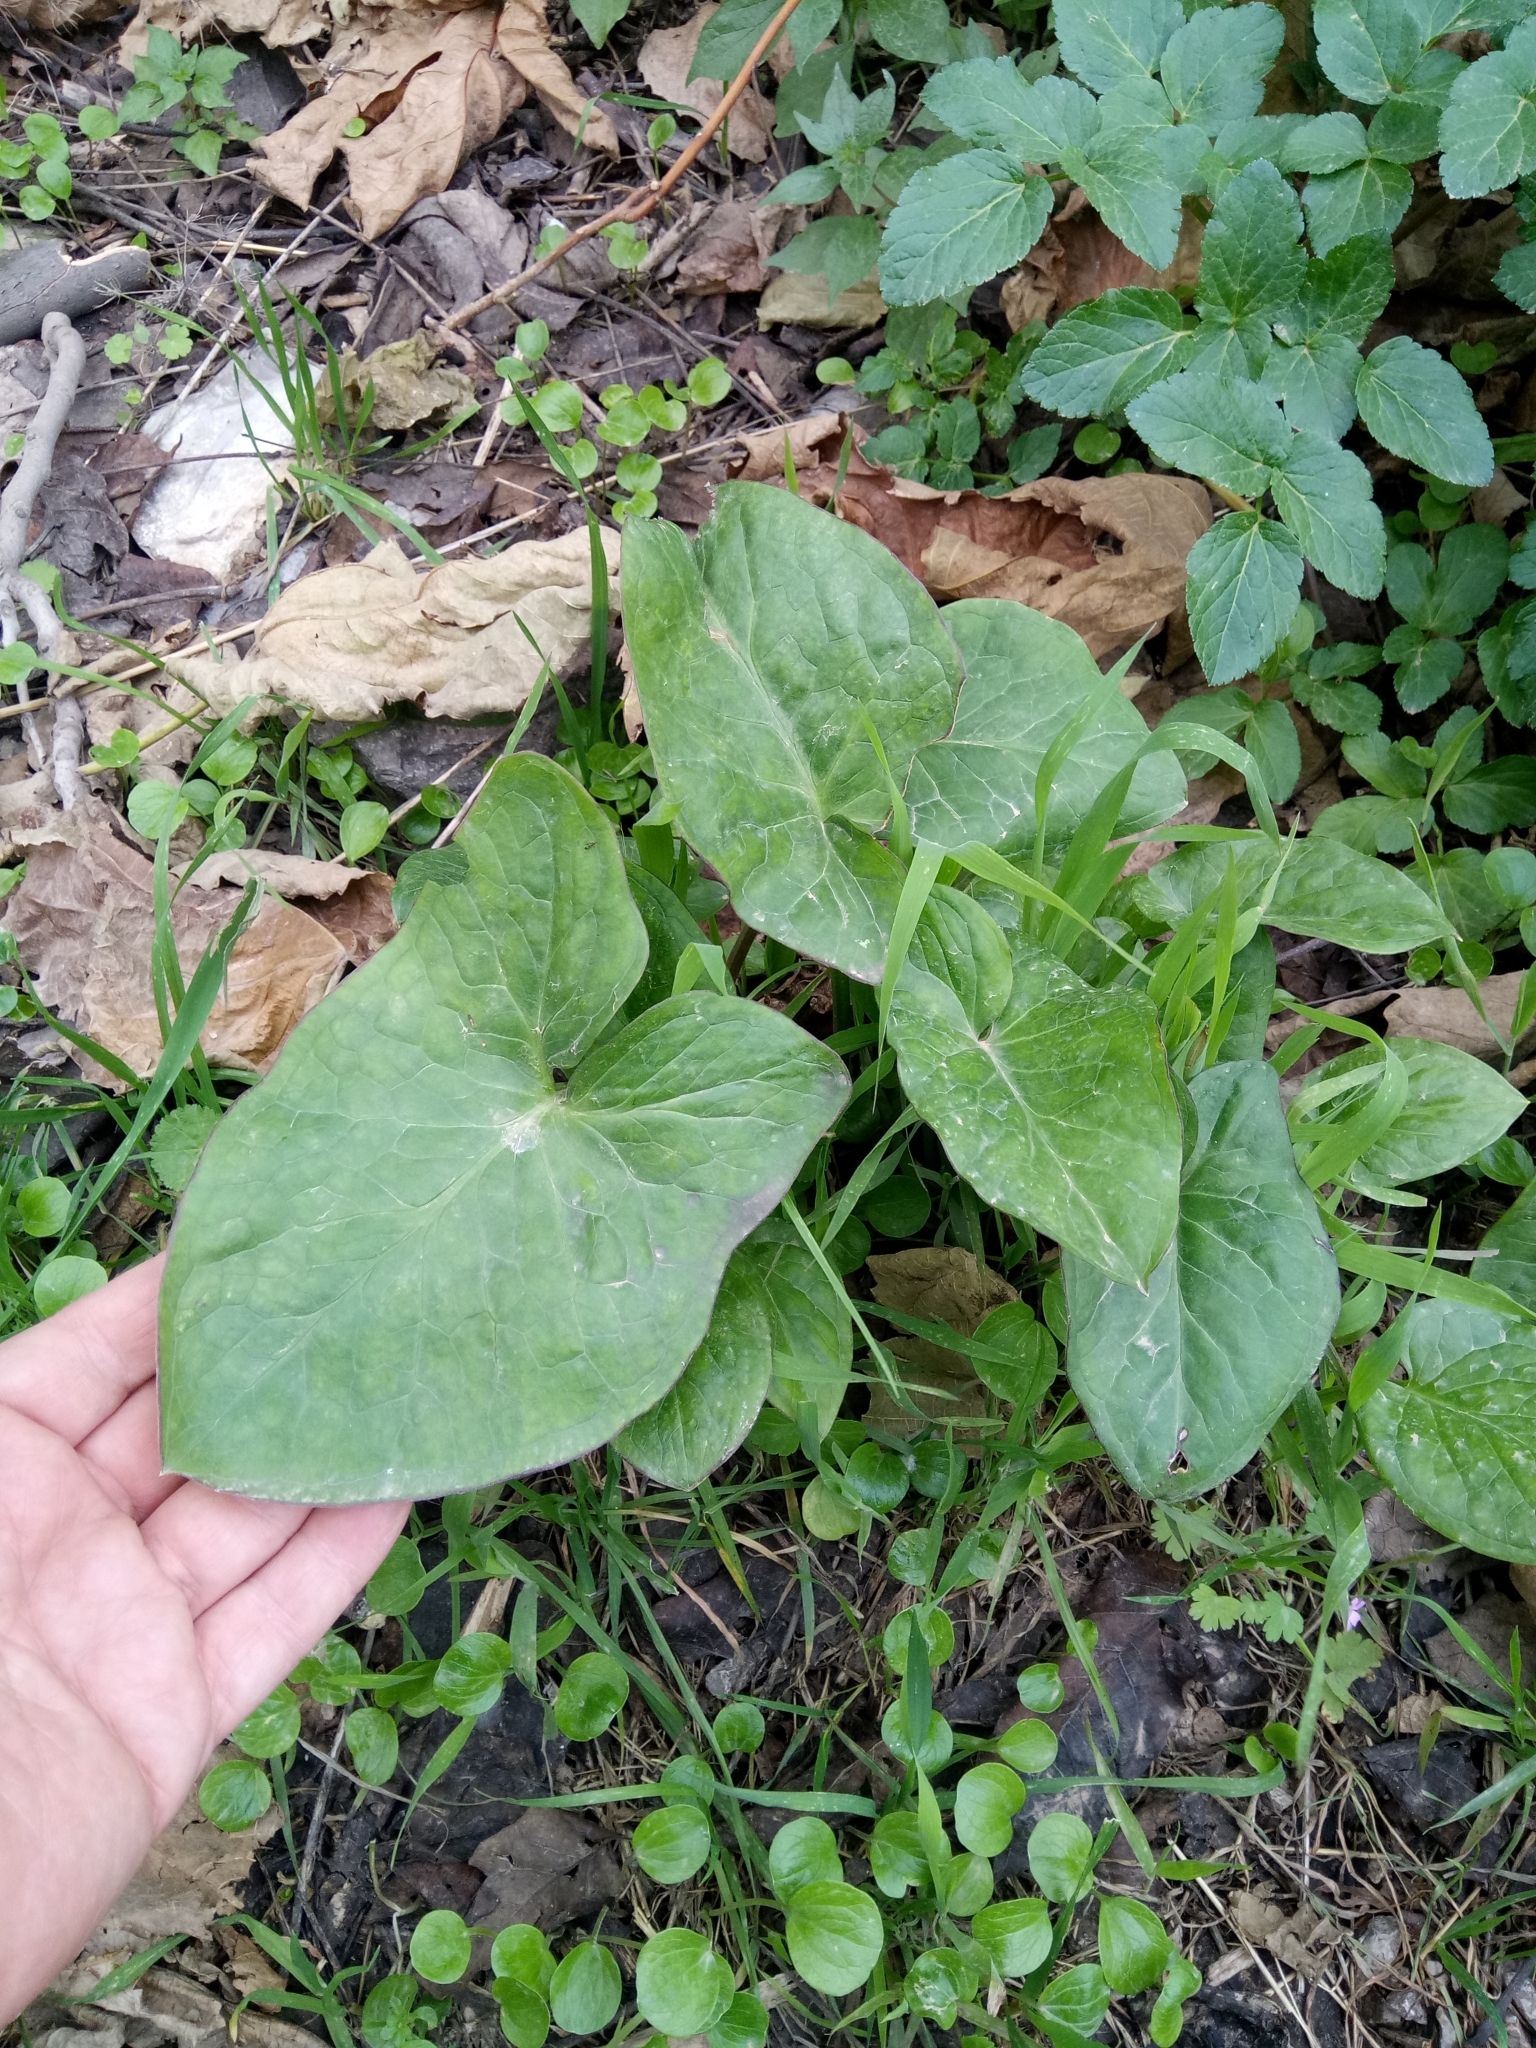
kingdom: Plantae
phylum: Tracheophyta
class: Liliopsida
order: Alismatales
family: Araceae
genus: Arum
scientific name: Arum italicum
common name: Italian lords-and-ladies
